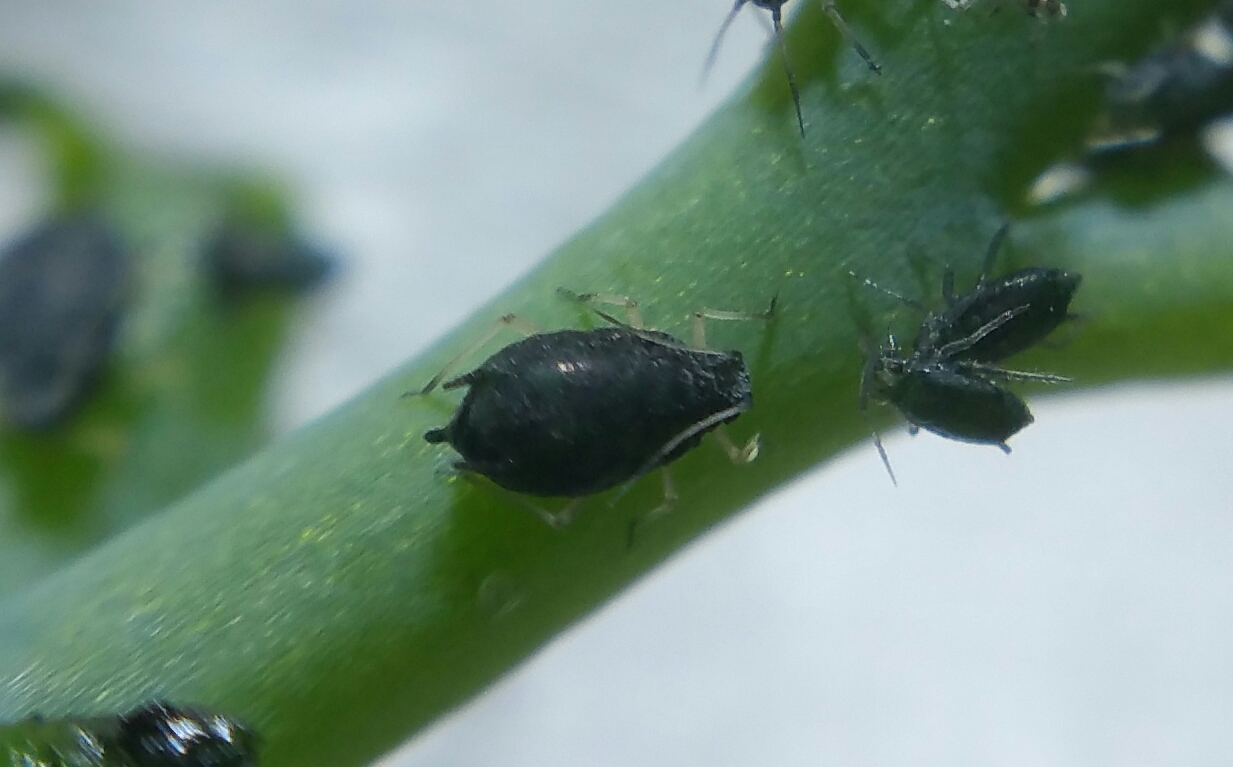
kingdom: Animalia
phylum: Arthropoda
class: Insecta
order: Hemiptera
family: Aphididae
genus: Aphis
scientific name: Aphis sedi
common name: Cactus aphid
